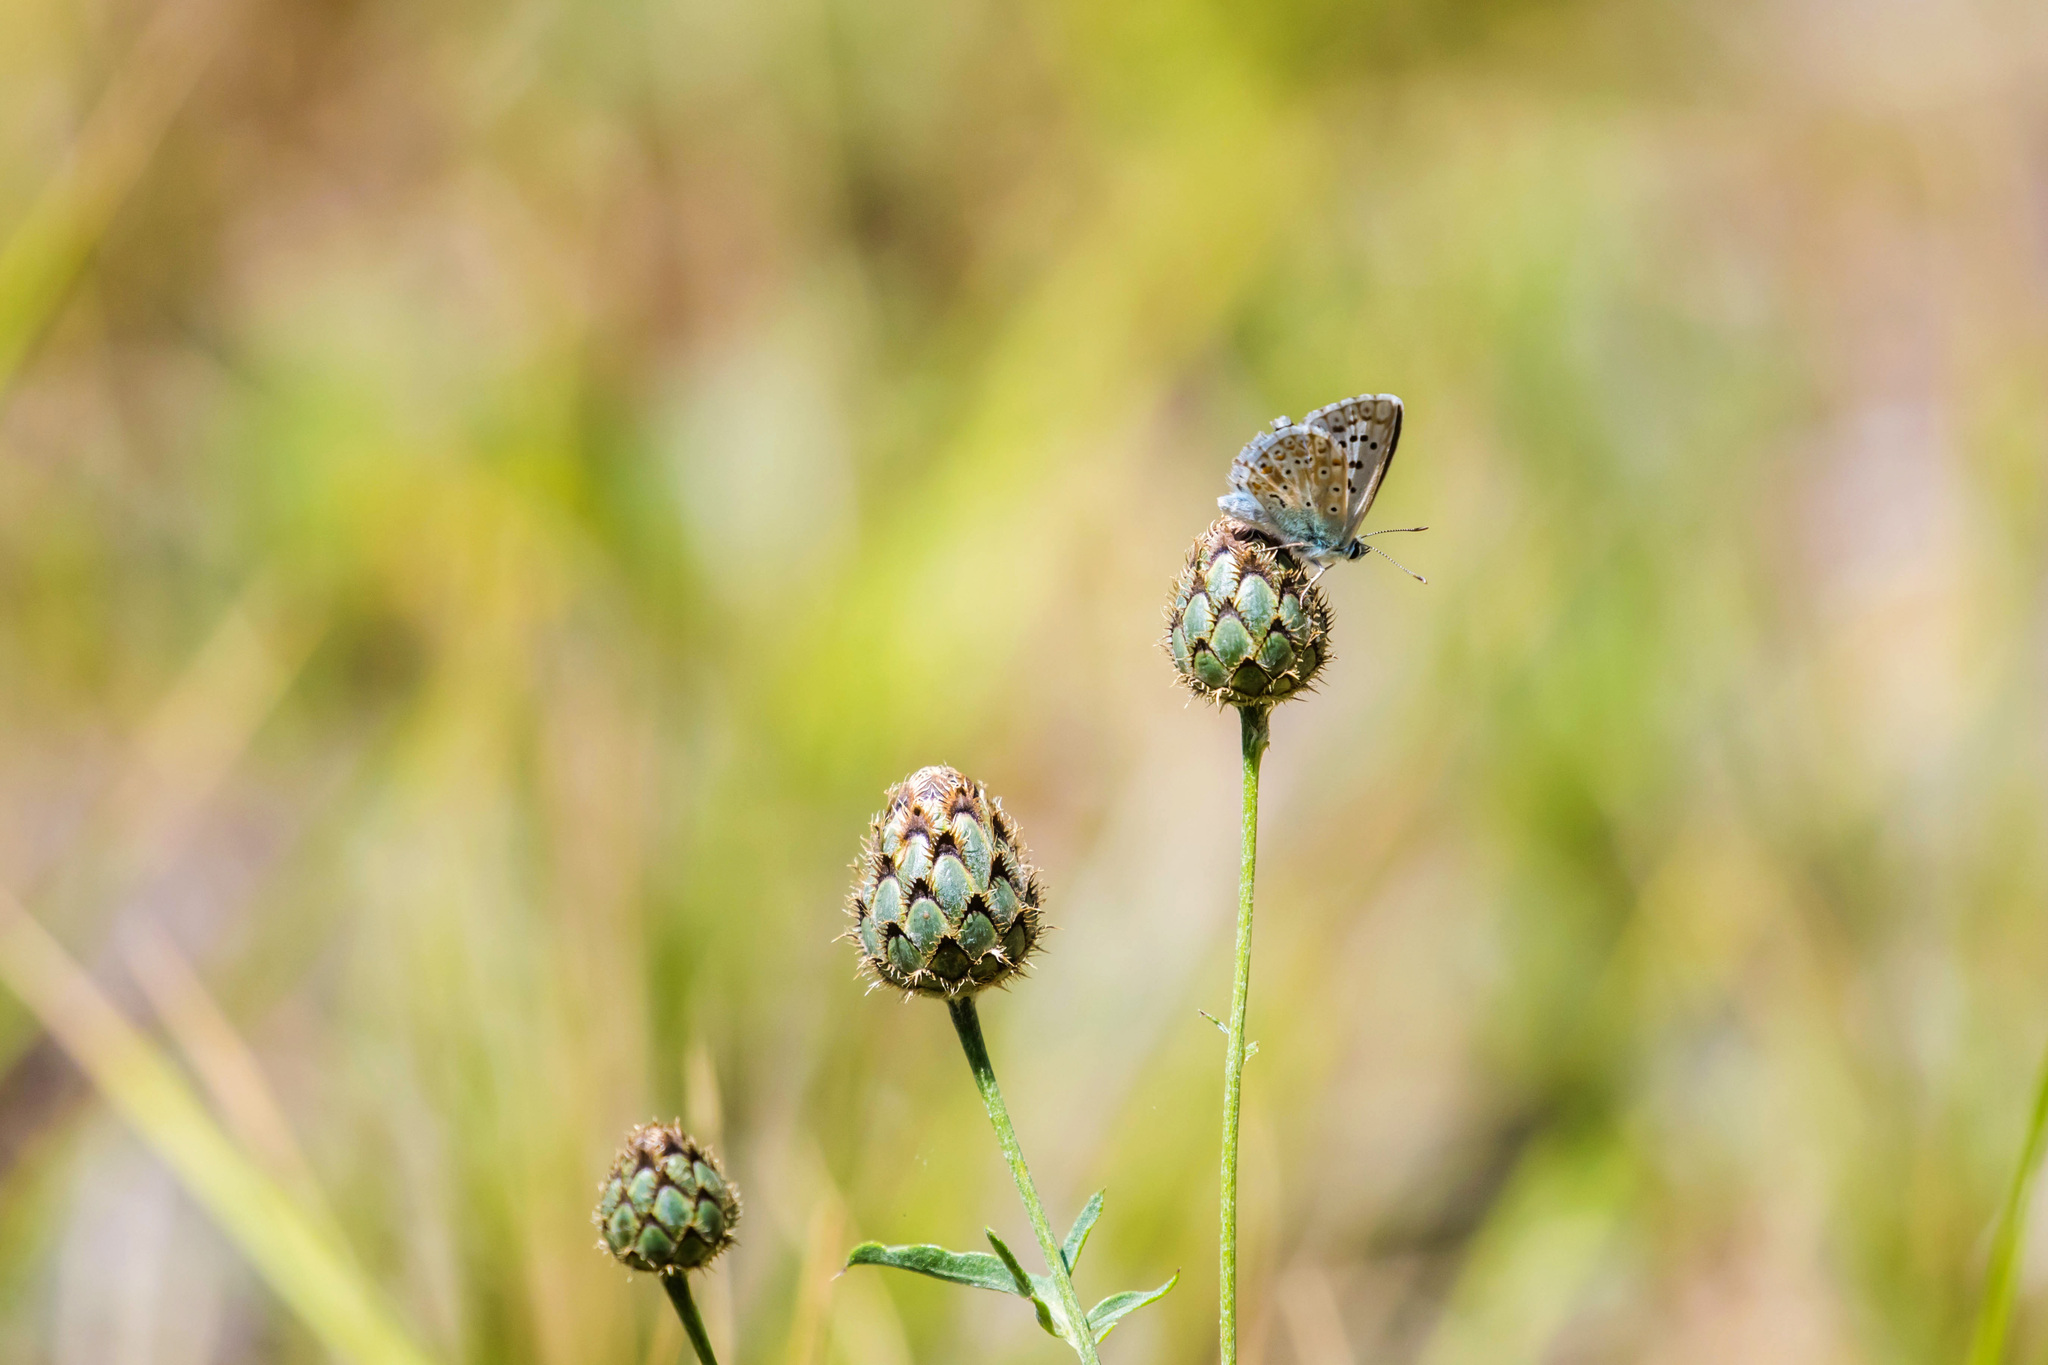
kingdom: Animalia
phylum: Arthropoda
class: Insecta
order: Lepidoptera
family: Lycaenidae
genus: Lysandra
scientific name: Lysandra coridon
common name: Chalkhill blue
